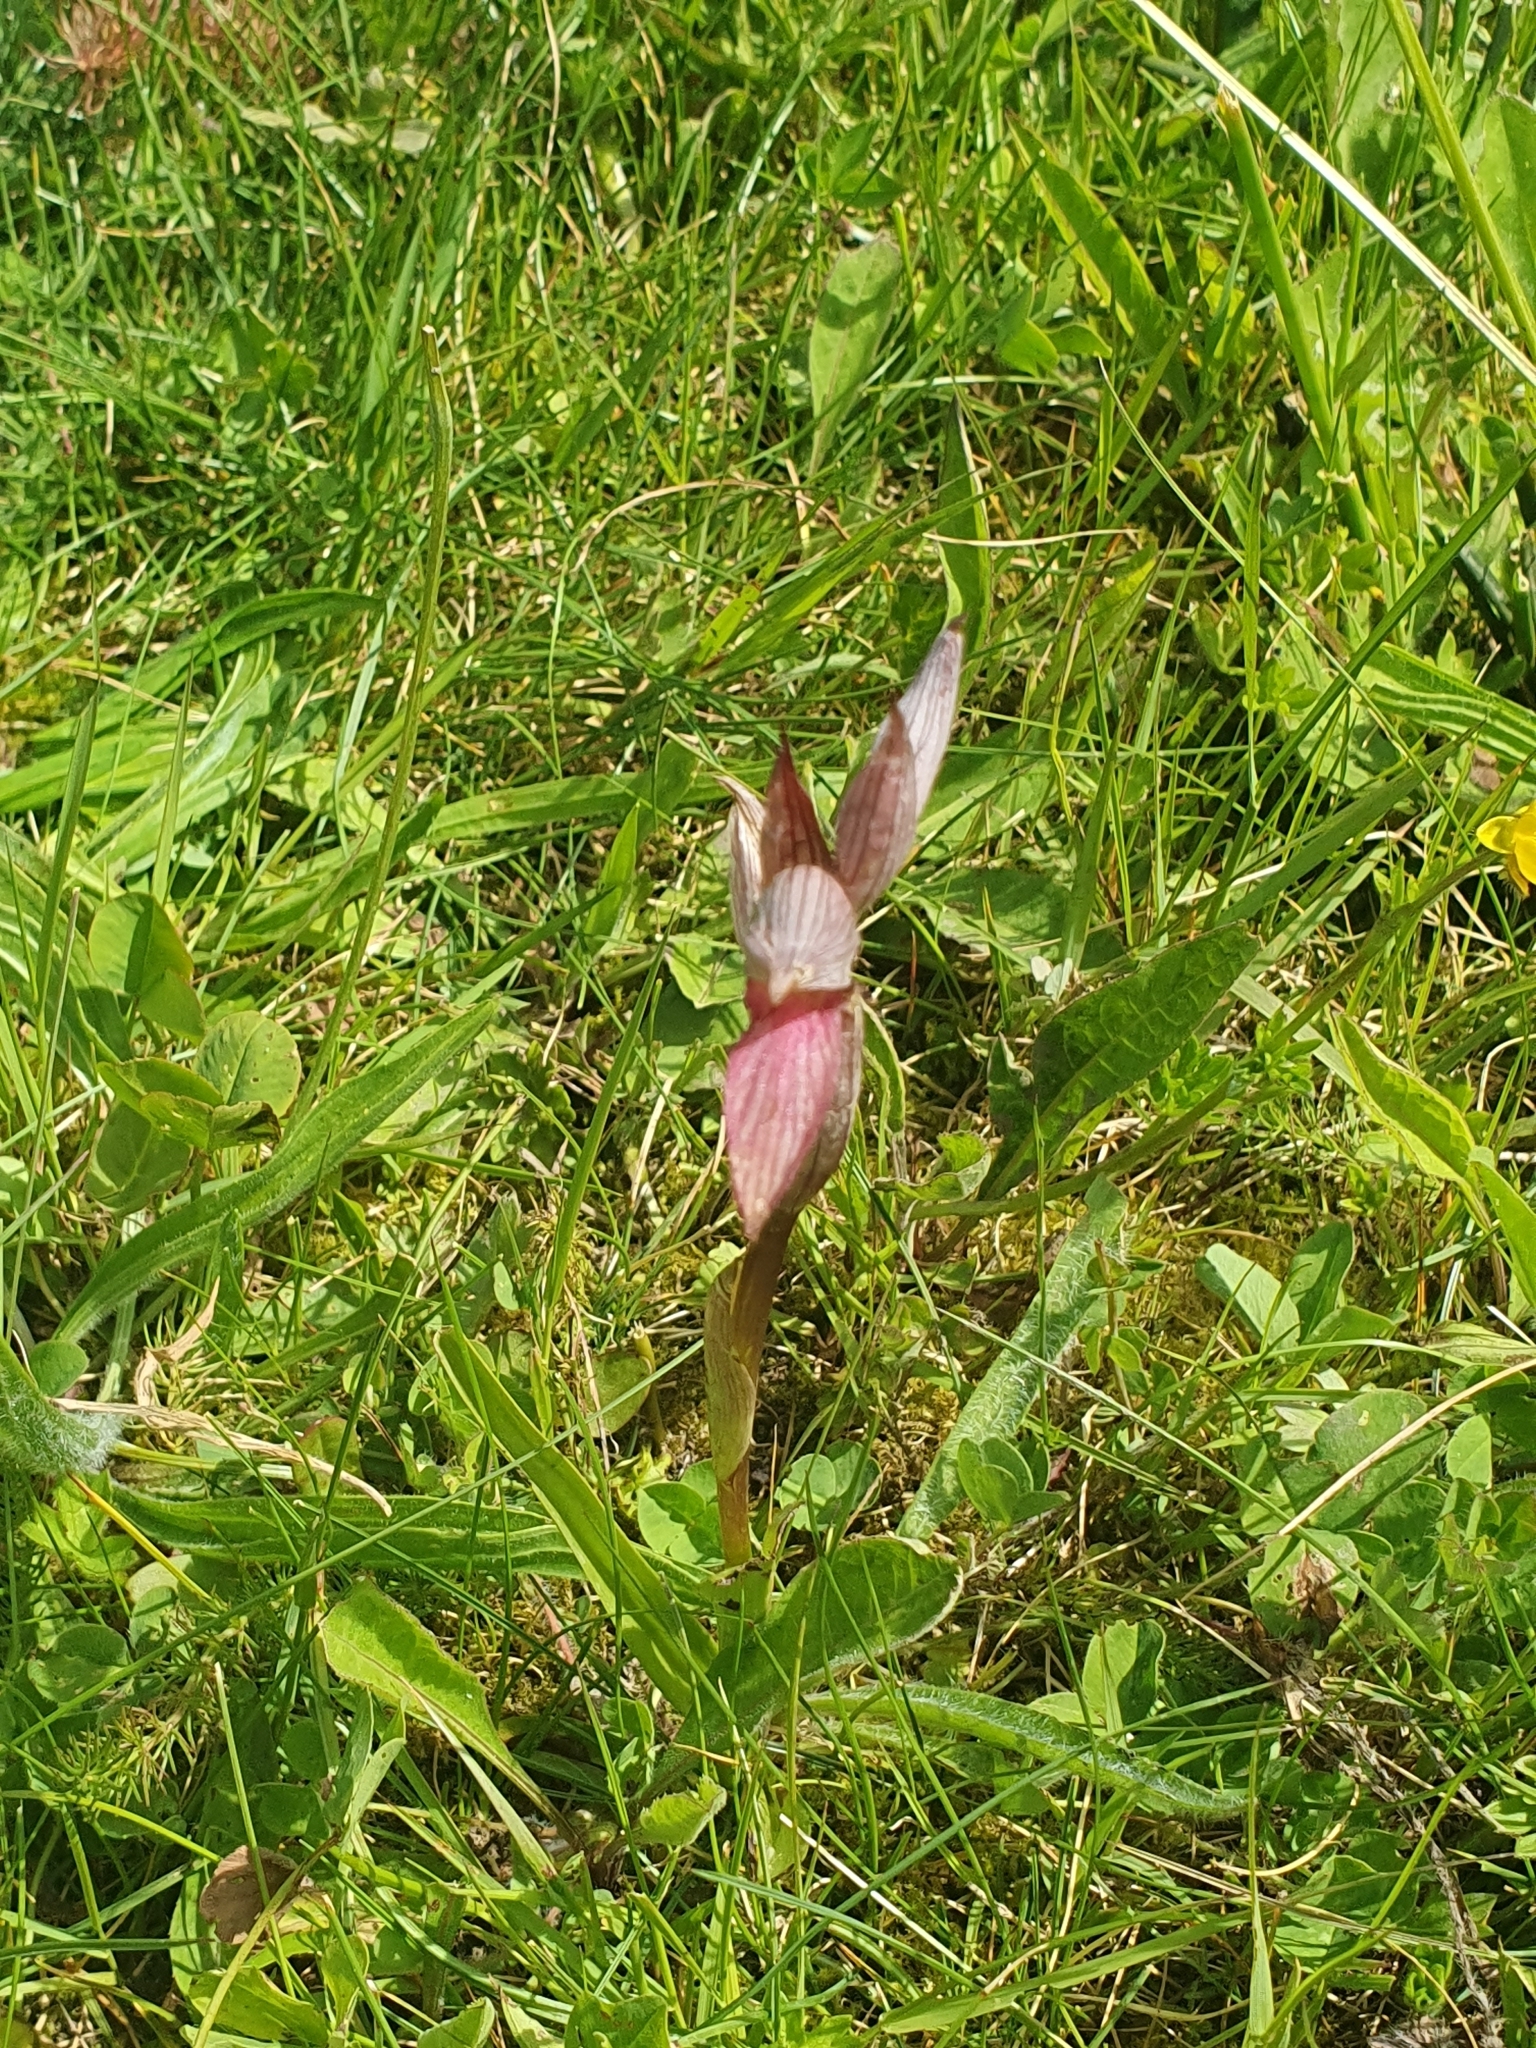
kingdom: Plantae
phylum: Tracheophyta
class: Liliopsida
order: Asparagales
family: Orchidaceae
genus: Serapias
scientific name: Serapias lingua
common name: Tongue-orchid
